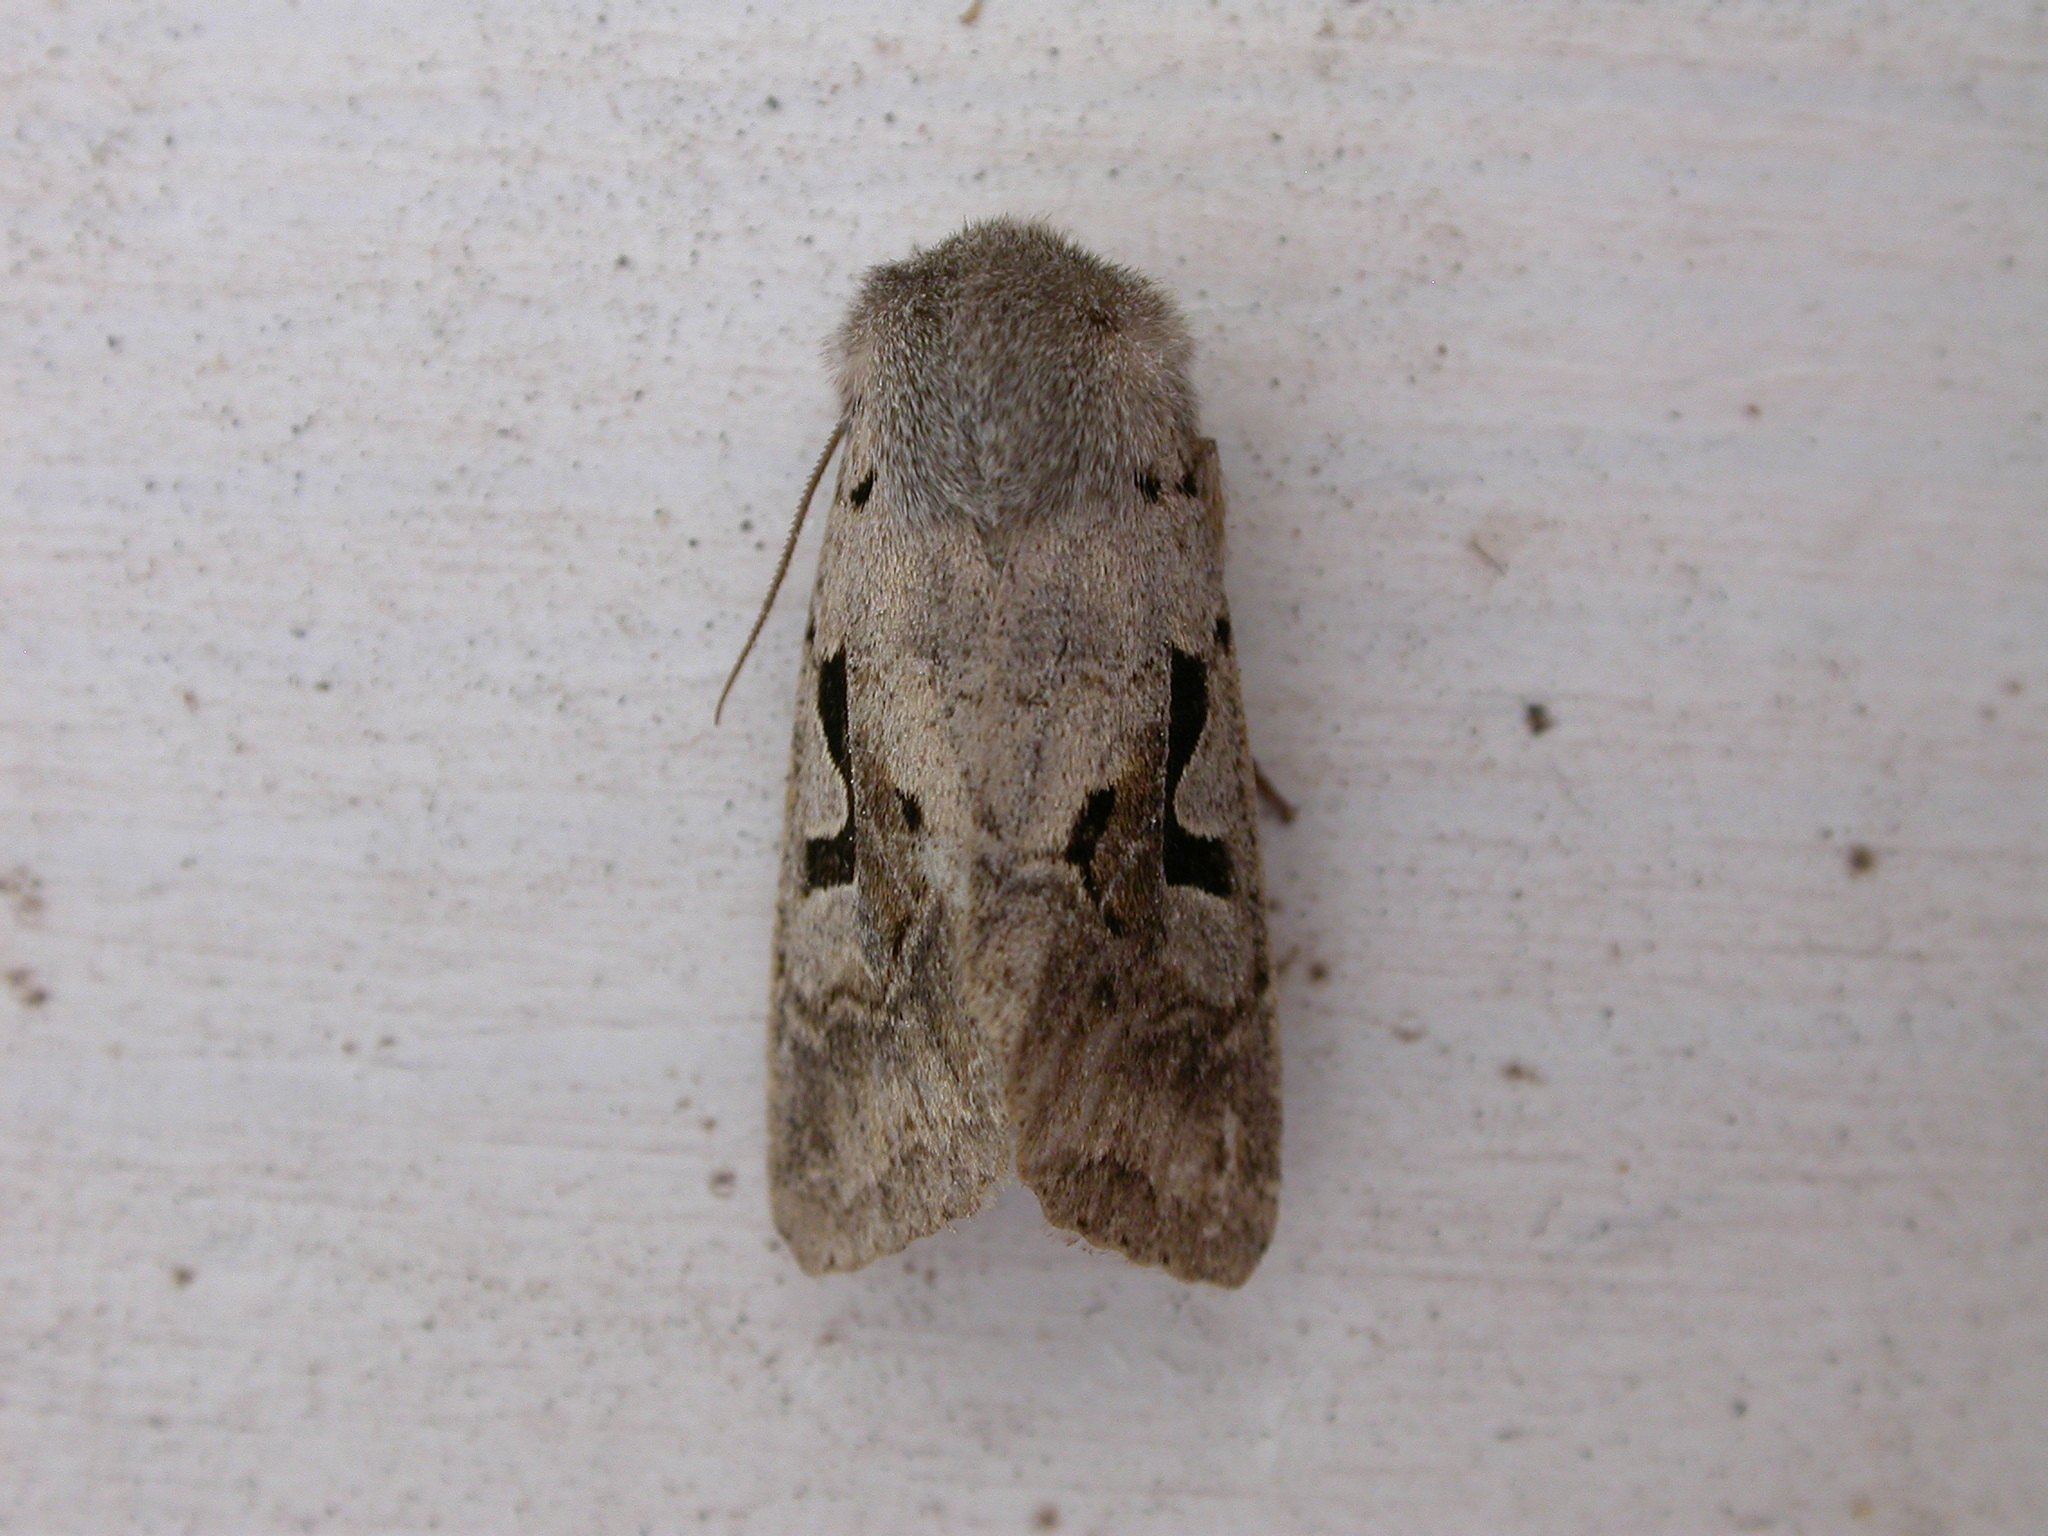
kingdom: Animalia
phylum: Arthropoda
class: Insecta
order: Lepidoptera
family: Noctuidae
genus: Orthosia
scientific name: Orthosia gothica
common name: Hebrew character
